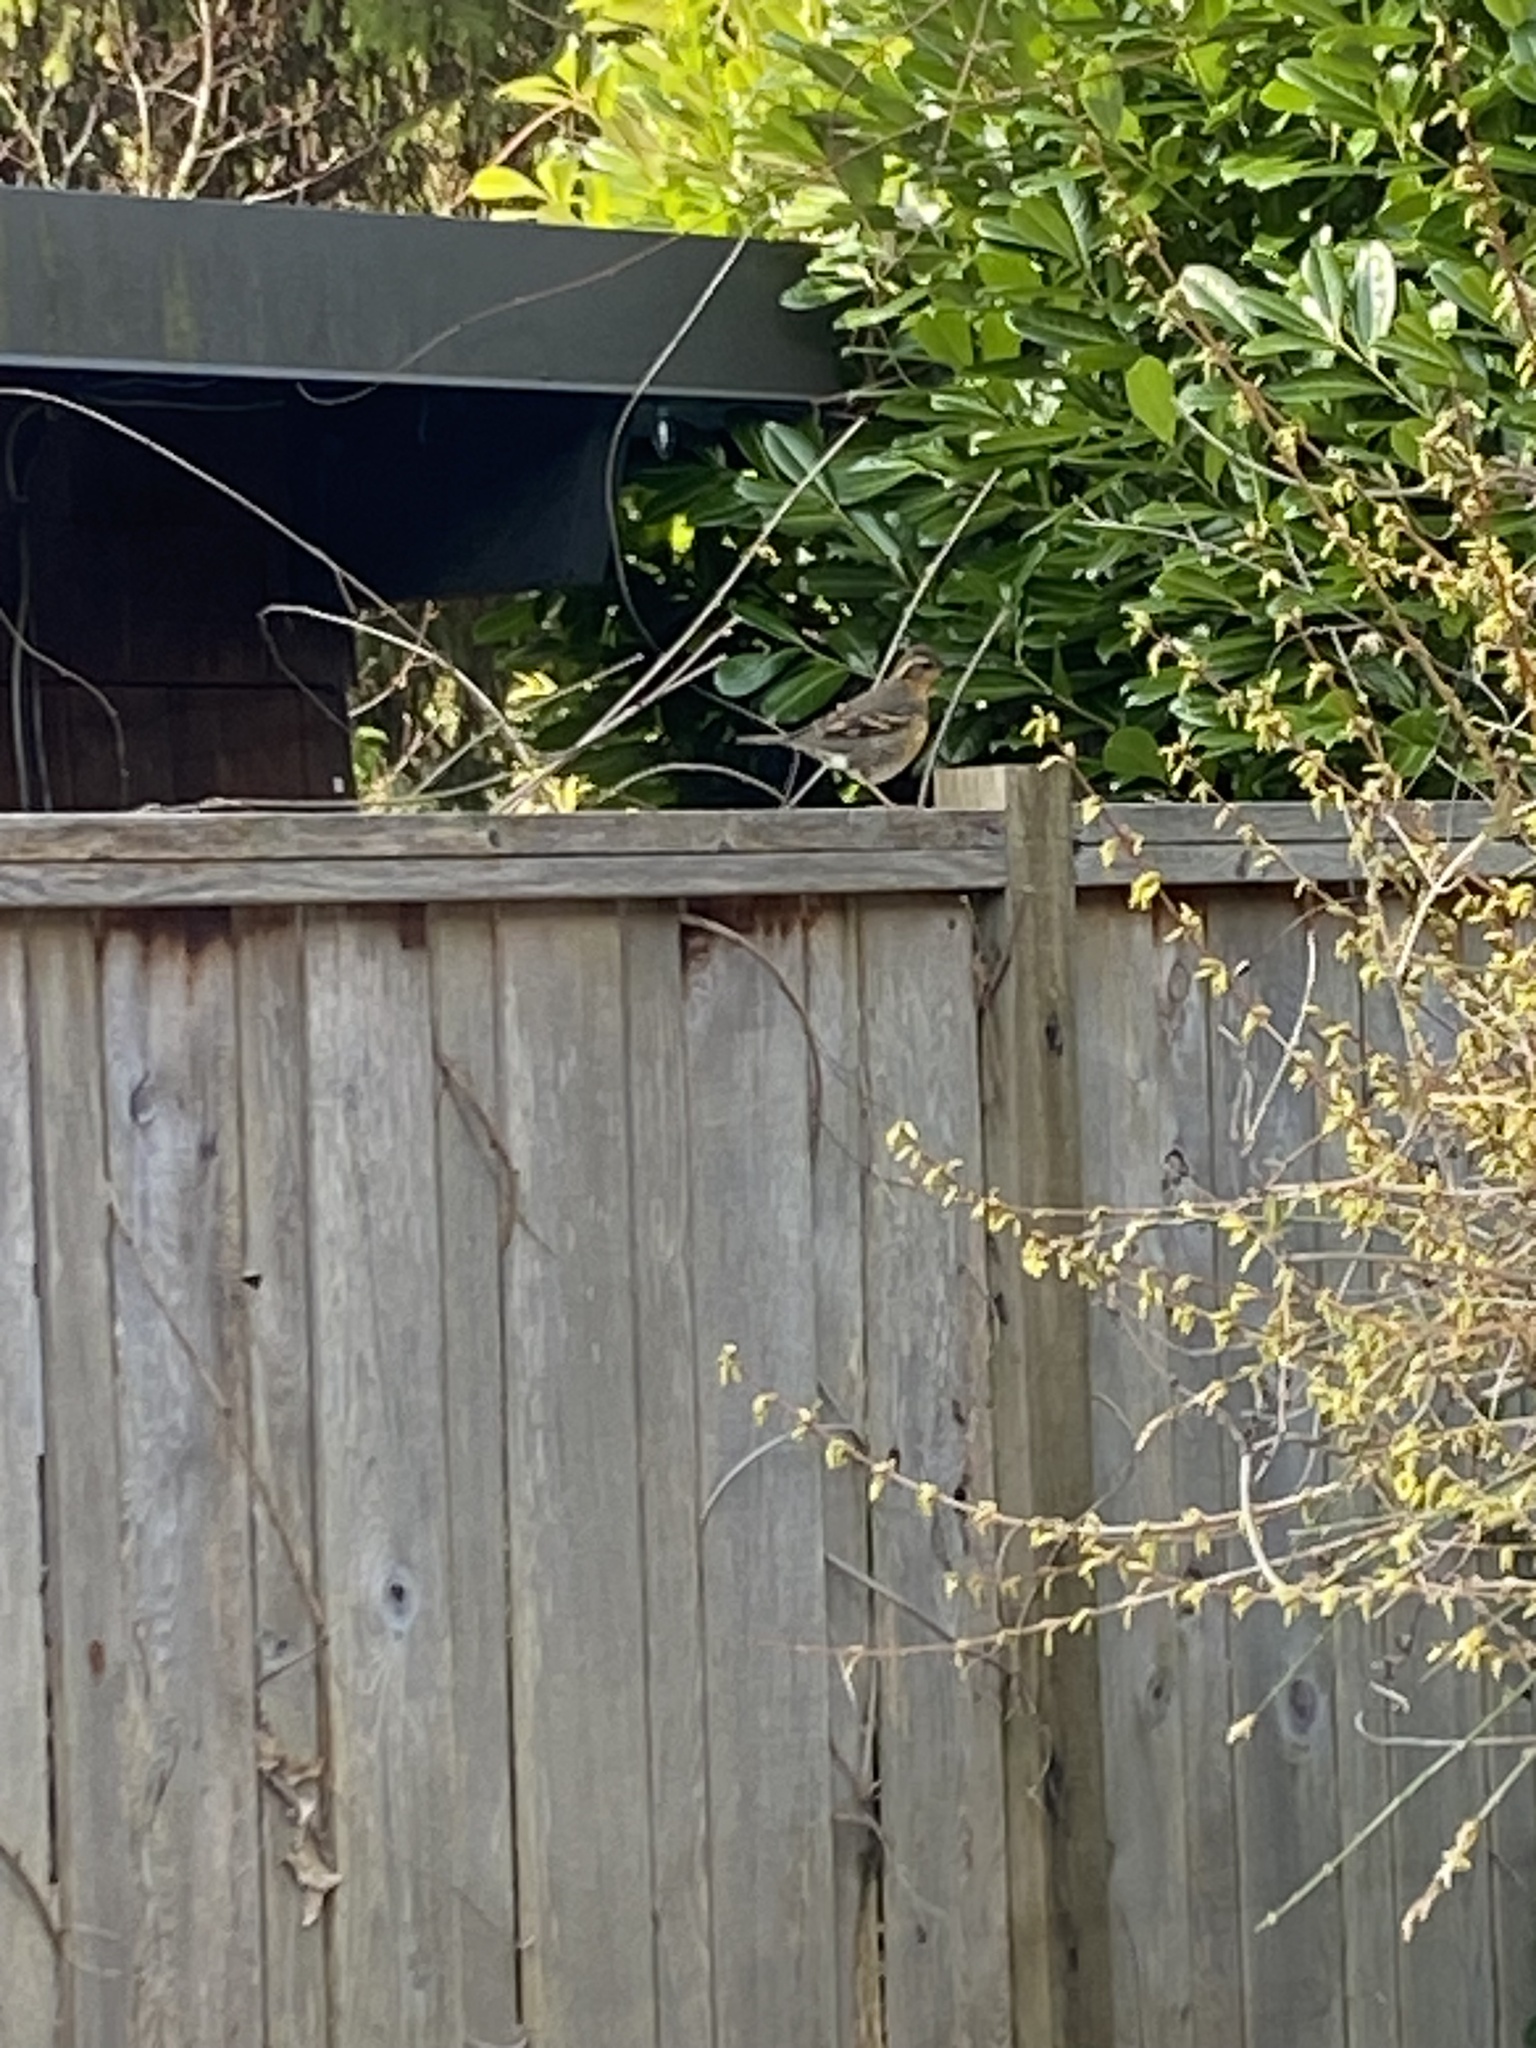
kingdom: Animalia
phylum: Chordata
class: Aves
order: Passeriformes
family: Turdidae
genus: Ixoreus
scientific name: Ixoreus naevius
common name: Varied thrush
